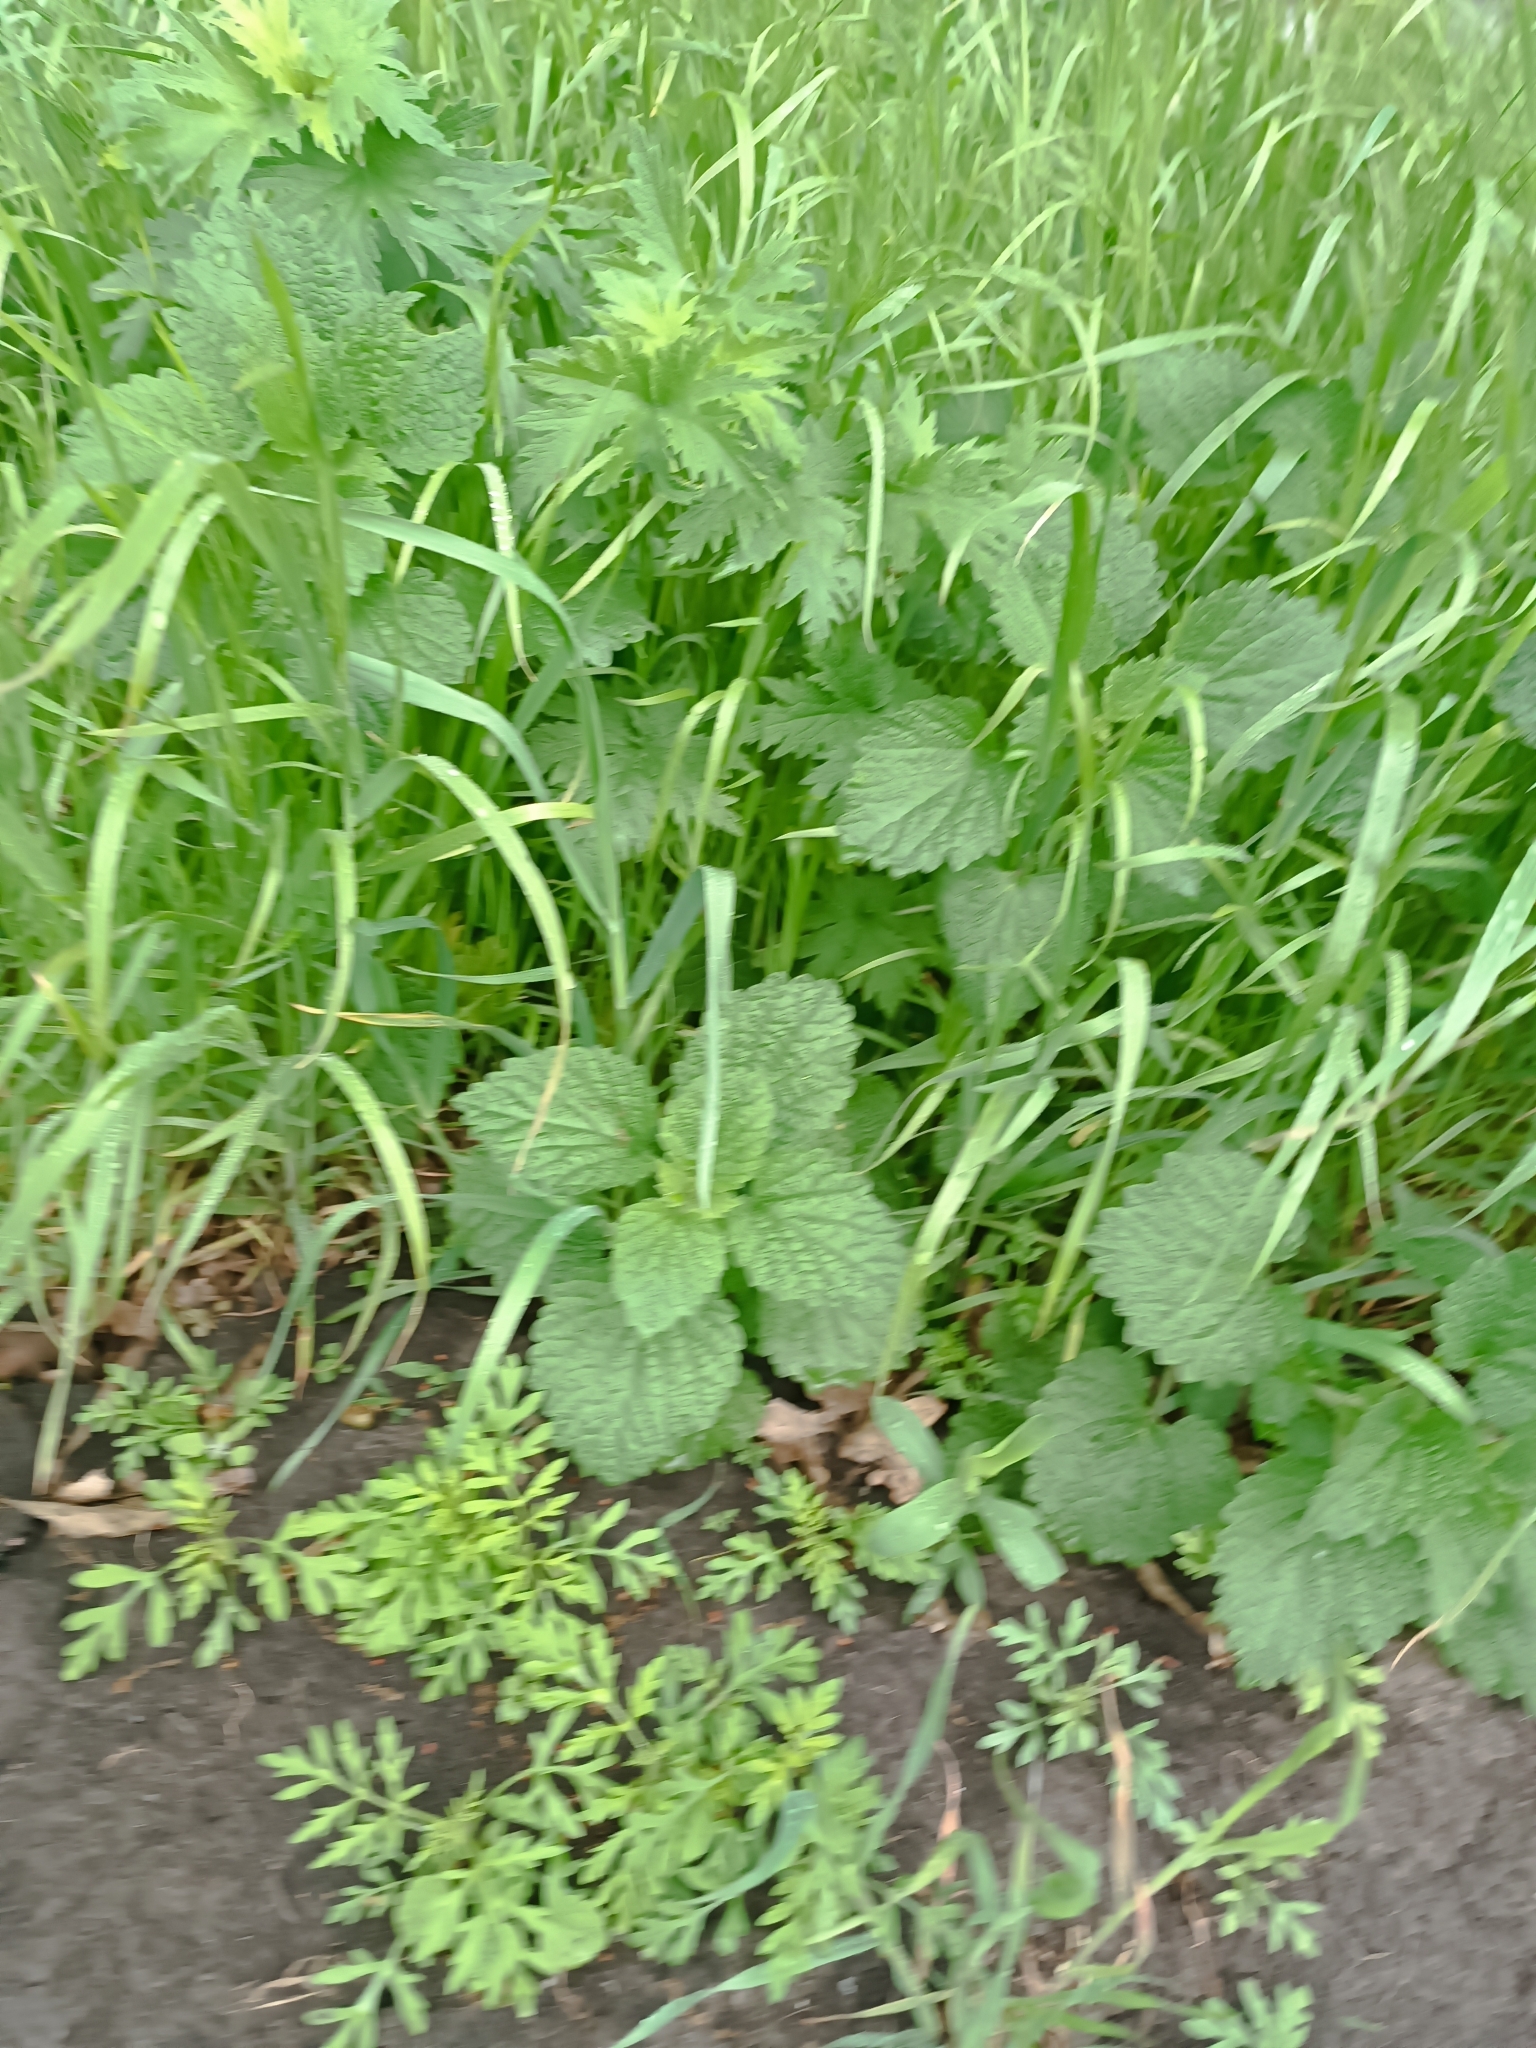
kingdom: Plantae
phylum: Tracheophyta
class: Magnoliopsida
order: Lamiales
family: Lamiaceae
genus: Ballota
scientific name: Ballota nigra
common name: Black horehound
